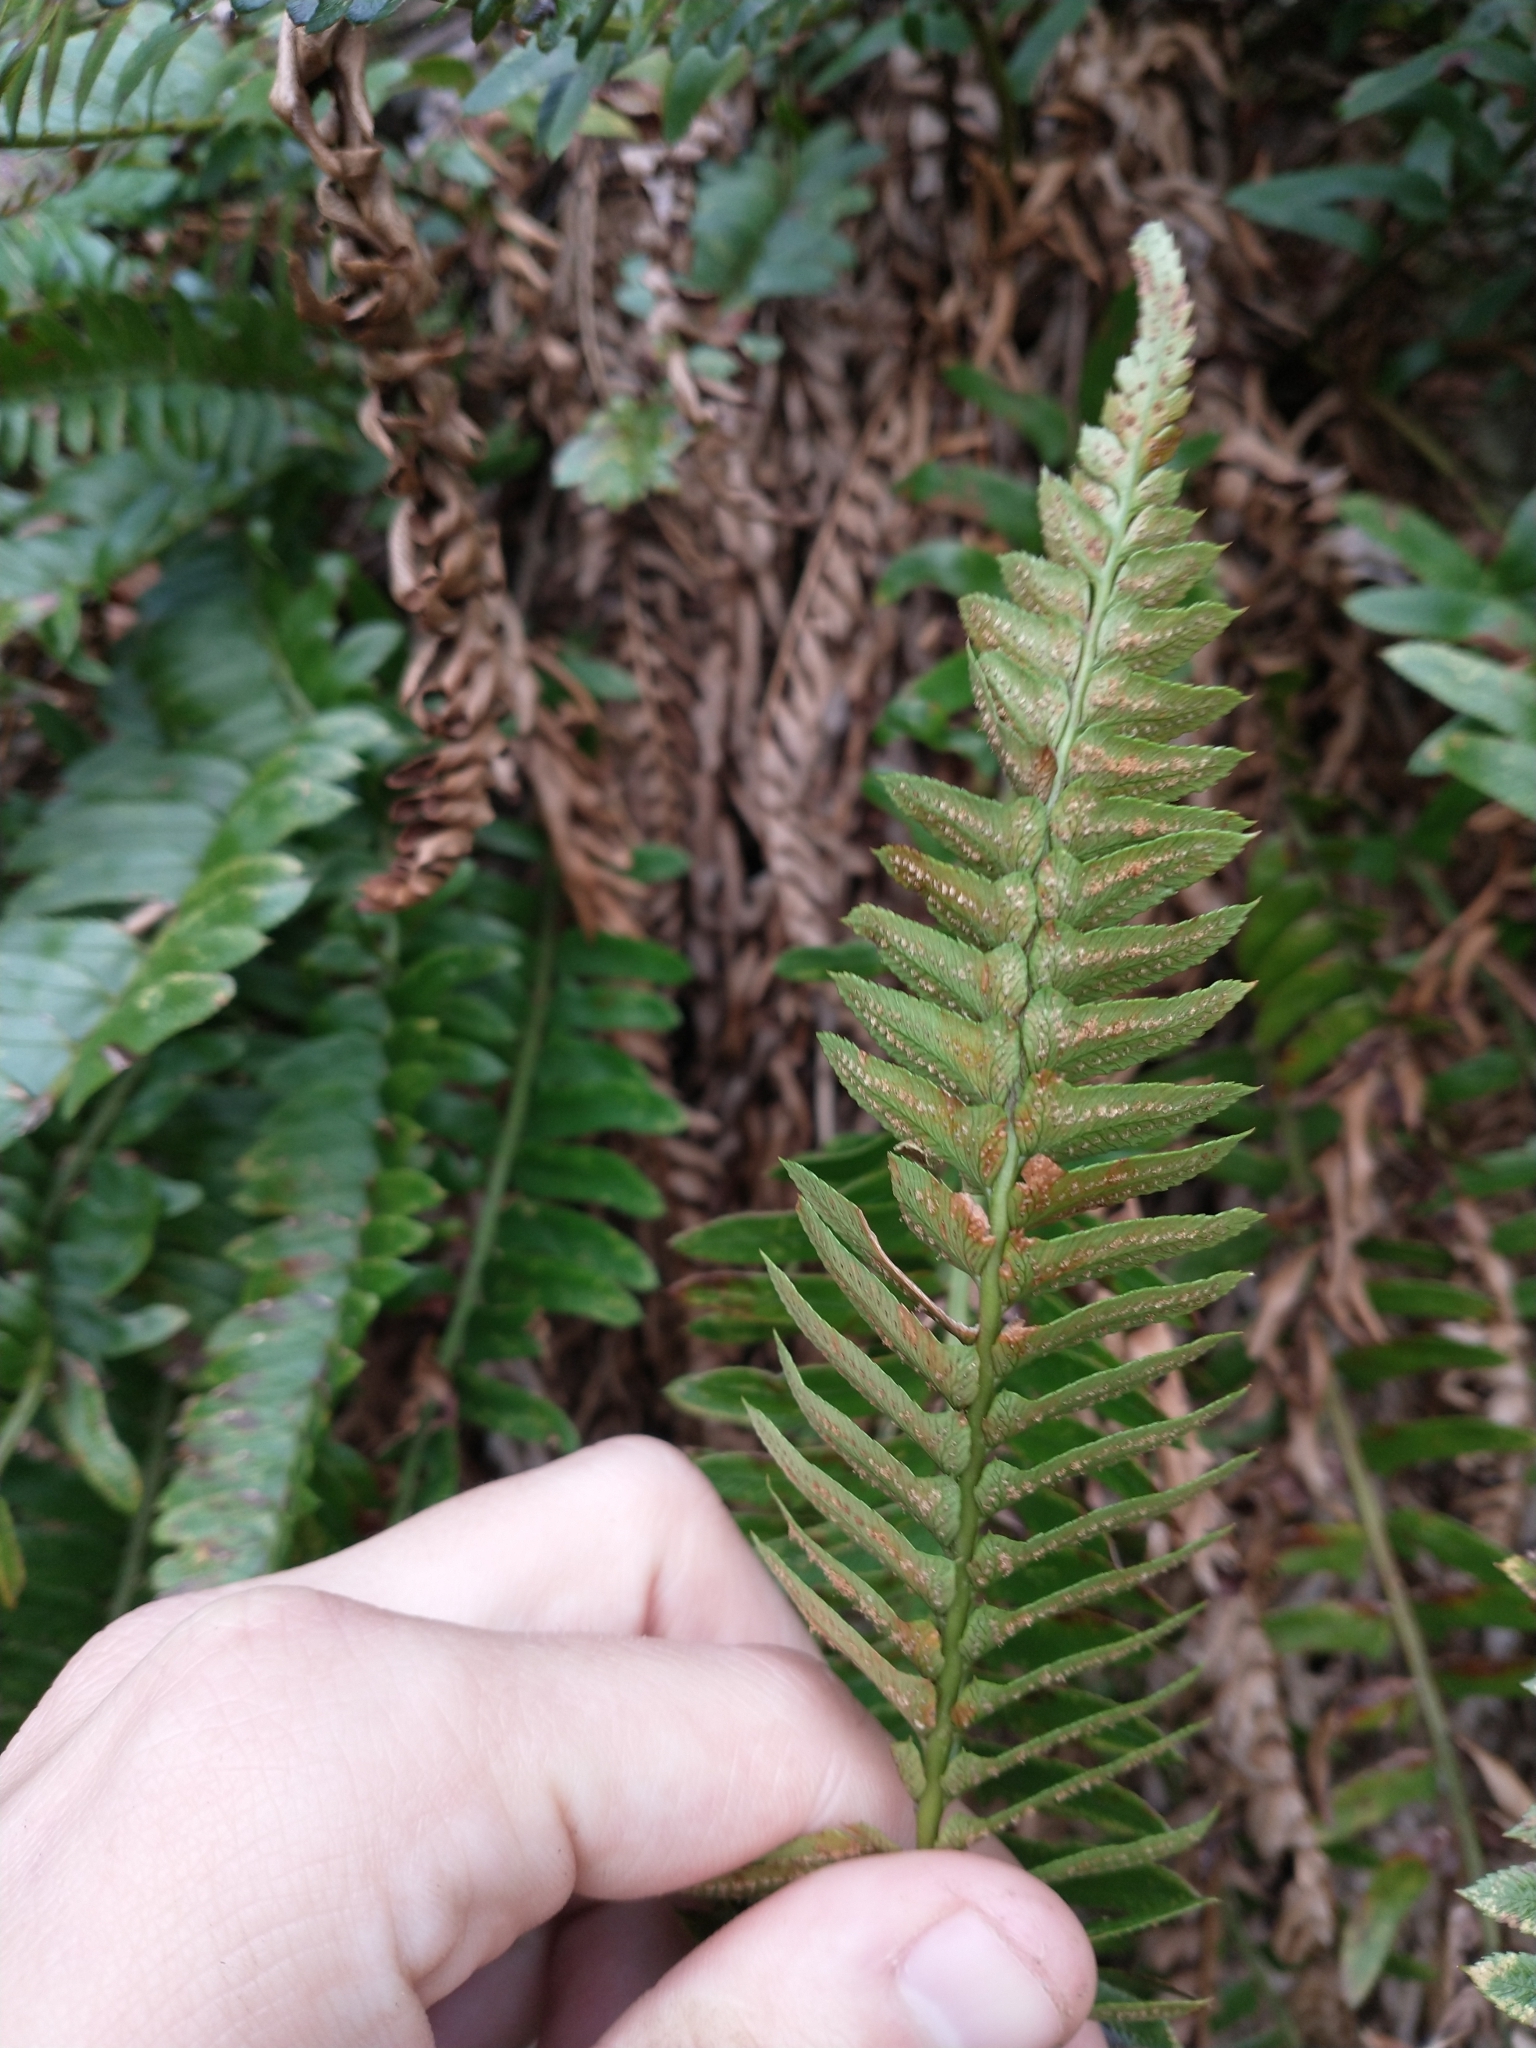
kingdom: Plantae
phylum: Tracheophyta
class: Polypodiopsida
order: Polypodiales
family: Dryopteridaceae
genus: Polystichum
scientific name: Polystichum imbricans
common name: Dwarf western sword fern
